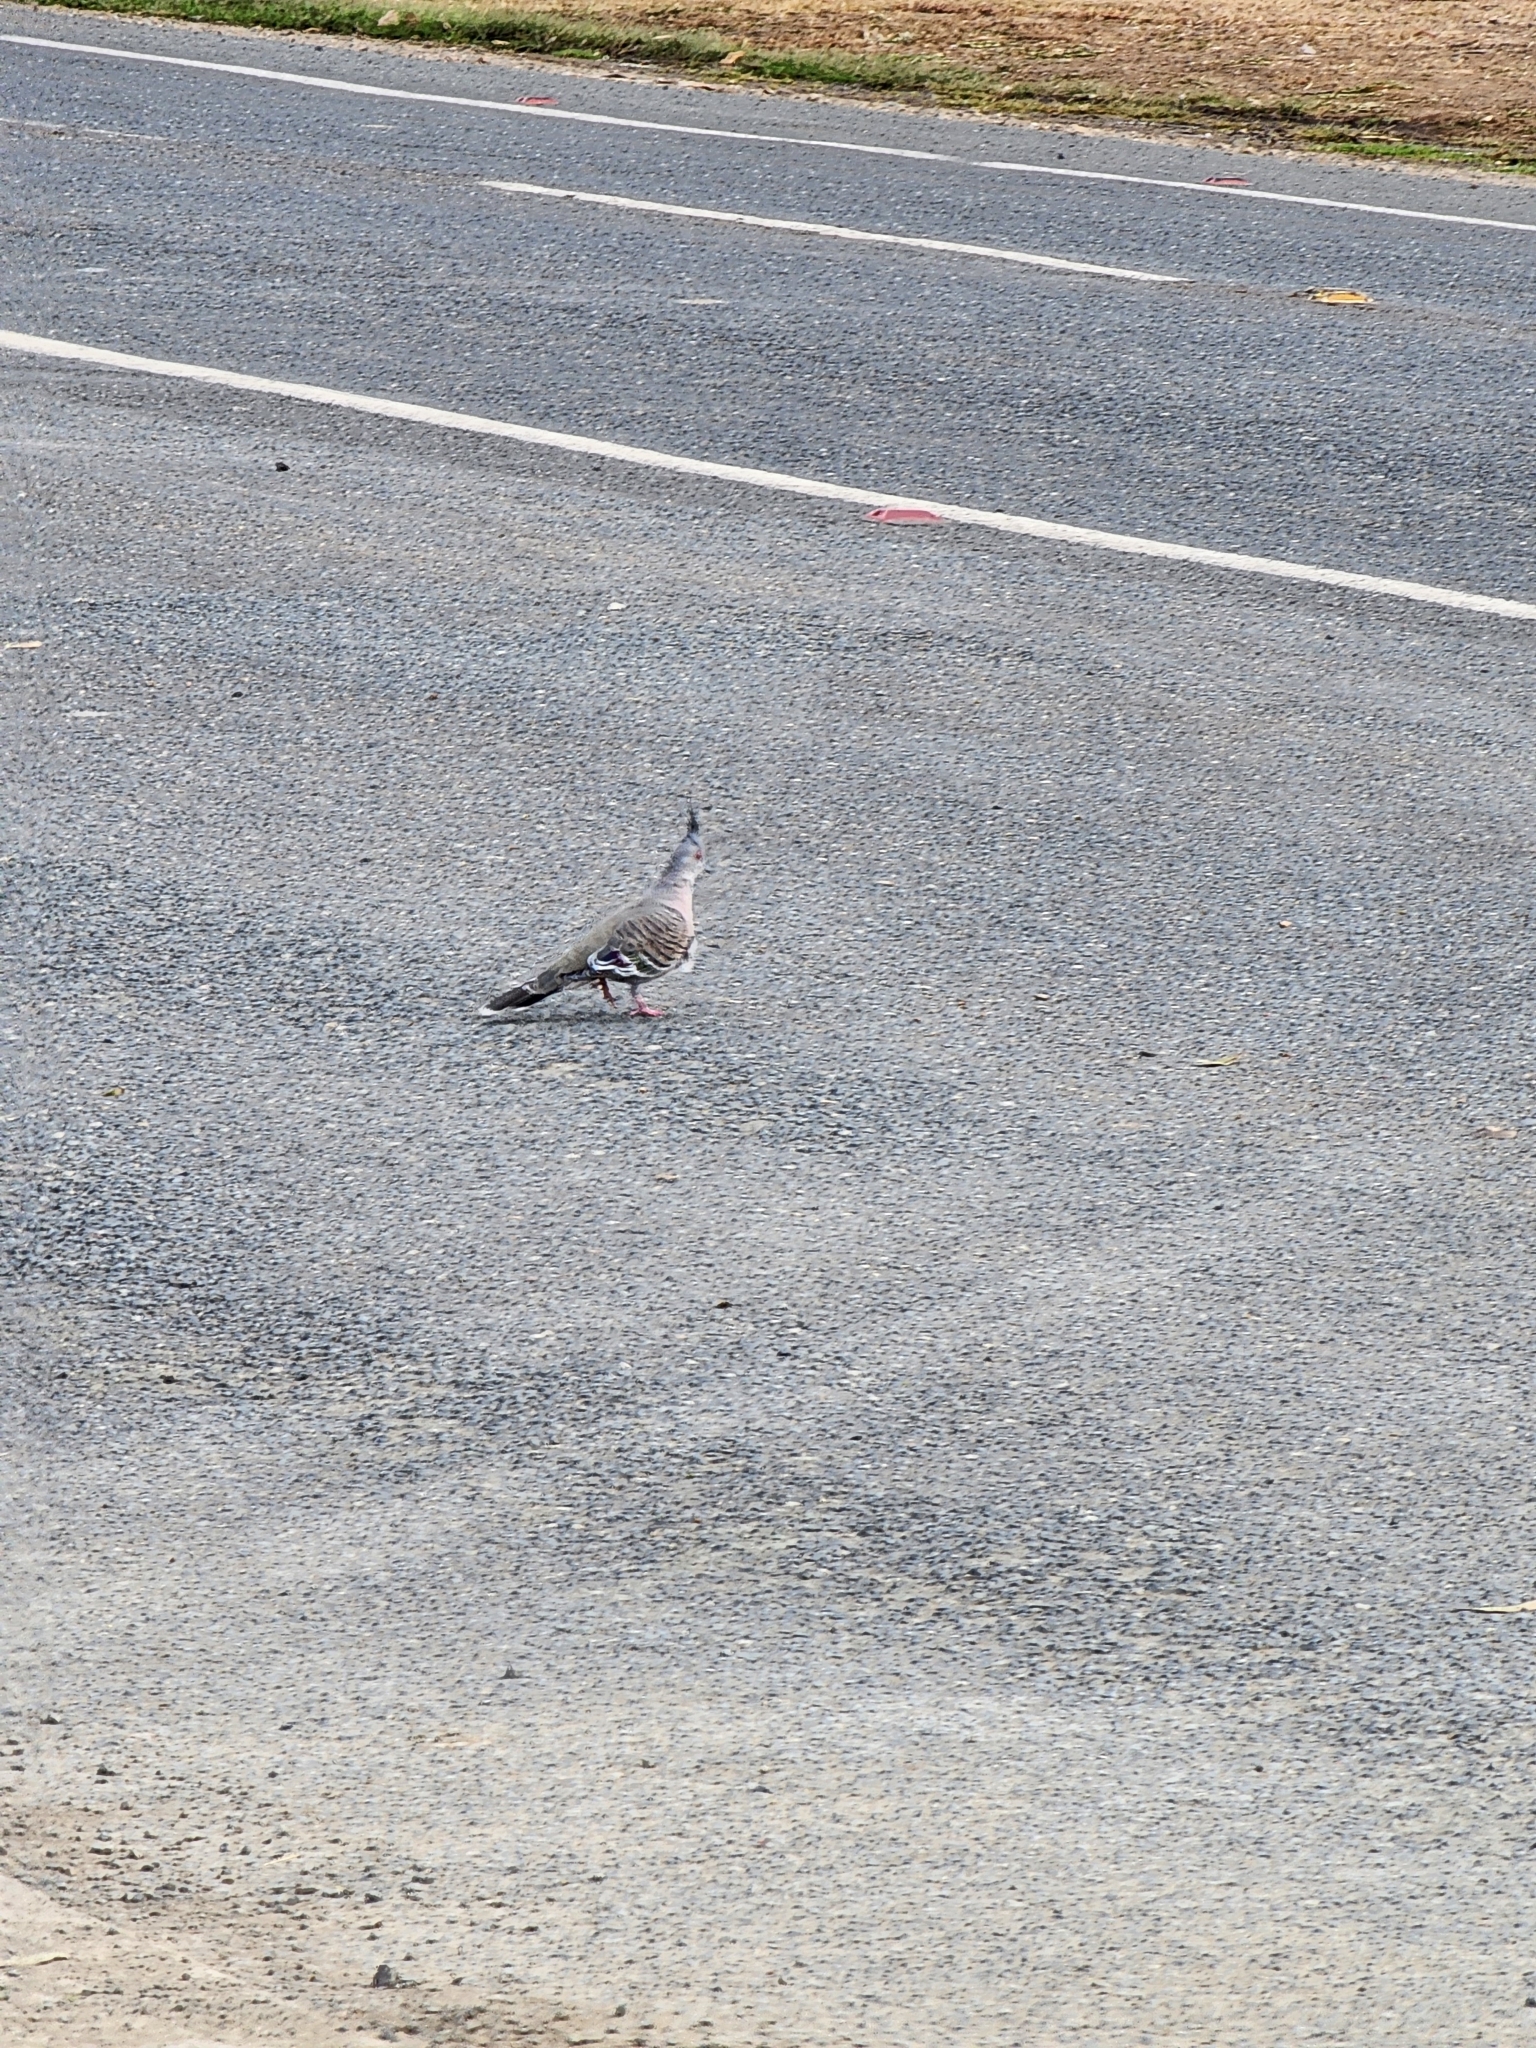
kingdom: Animalia
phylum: Chordata
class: Aves
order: Columbiformes
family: Columbidae
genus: Ocyphaps
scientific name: Ocyphaps lophotes
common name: Crested pigeon
